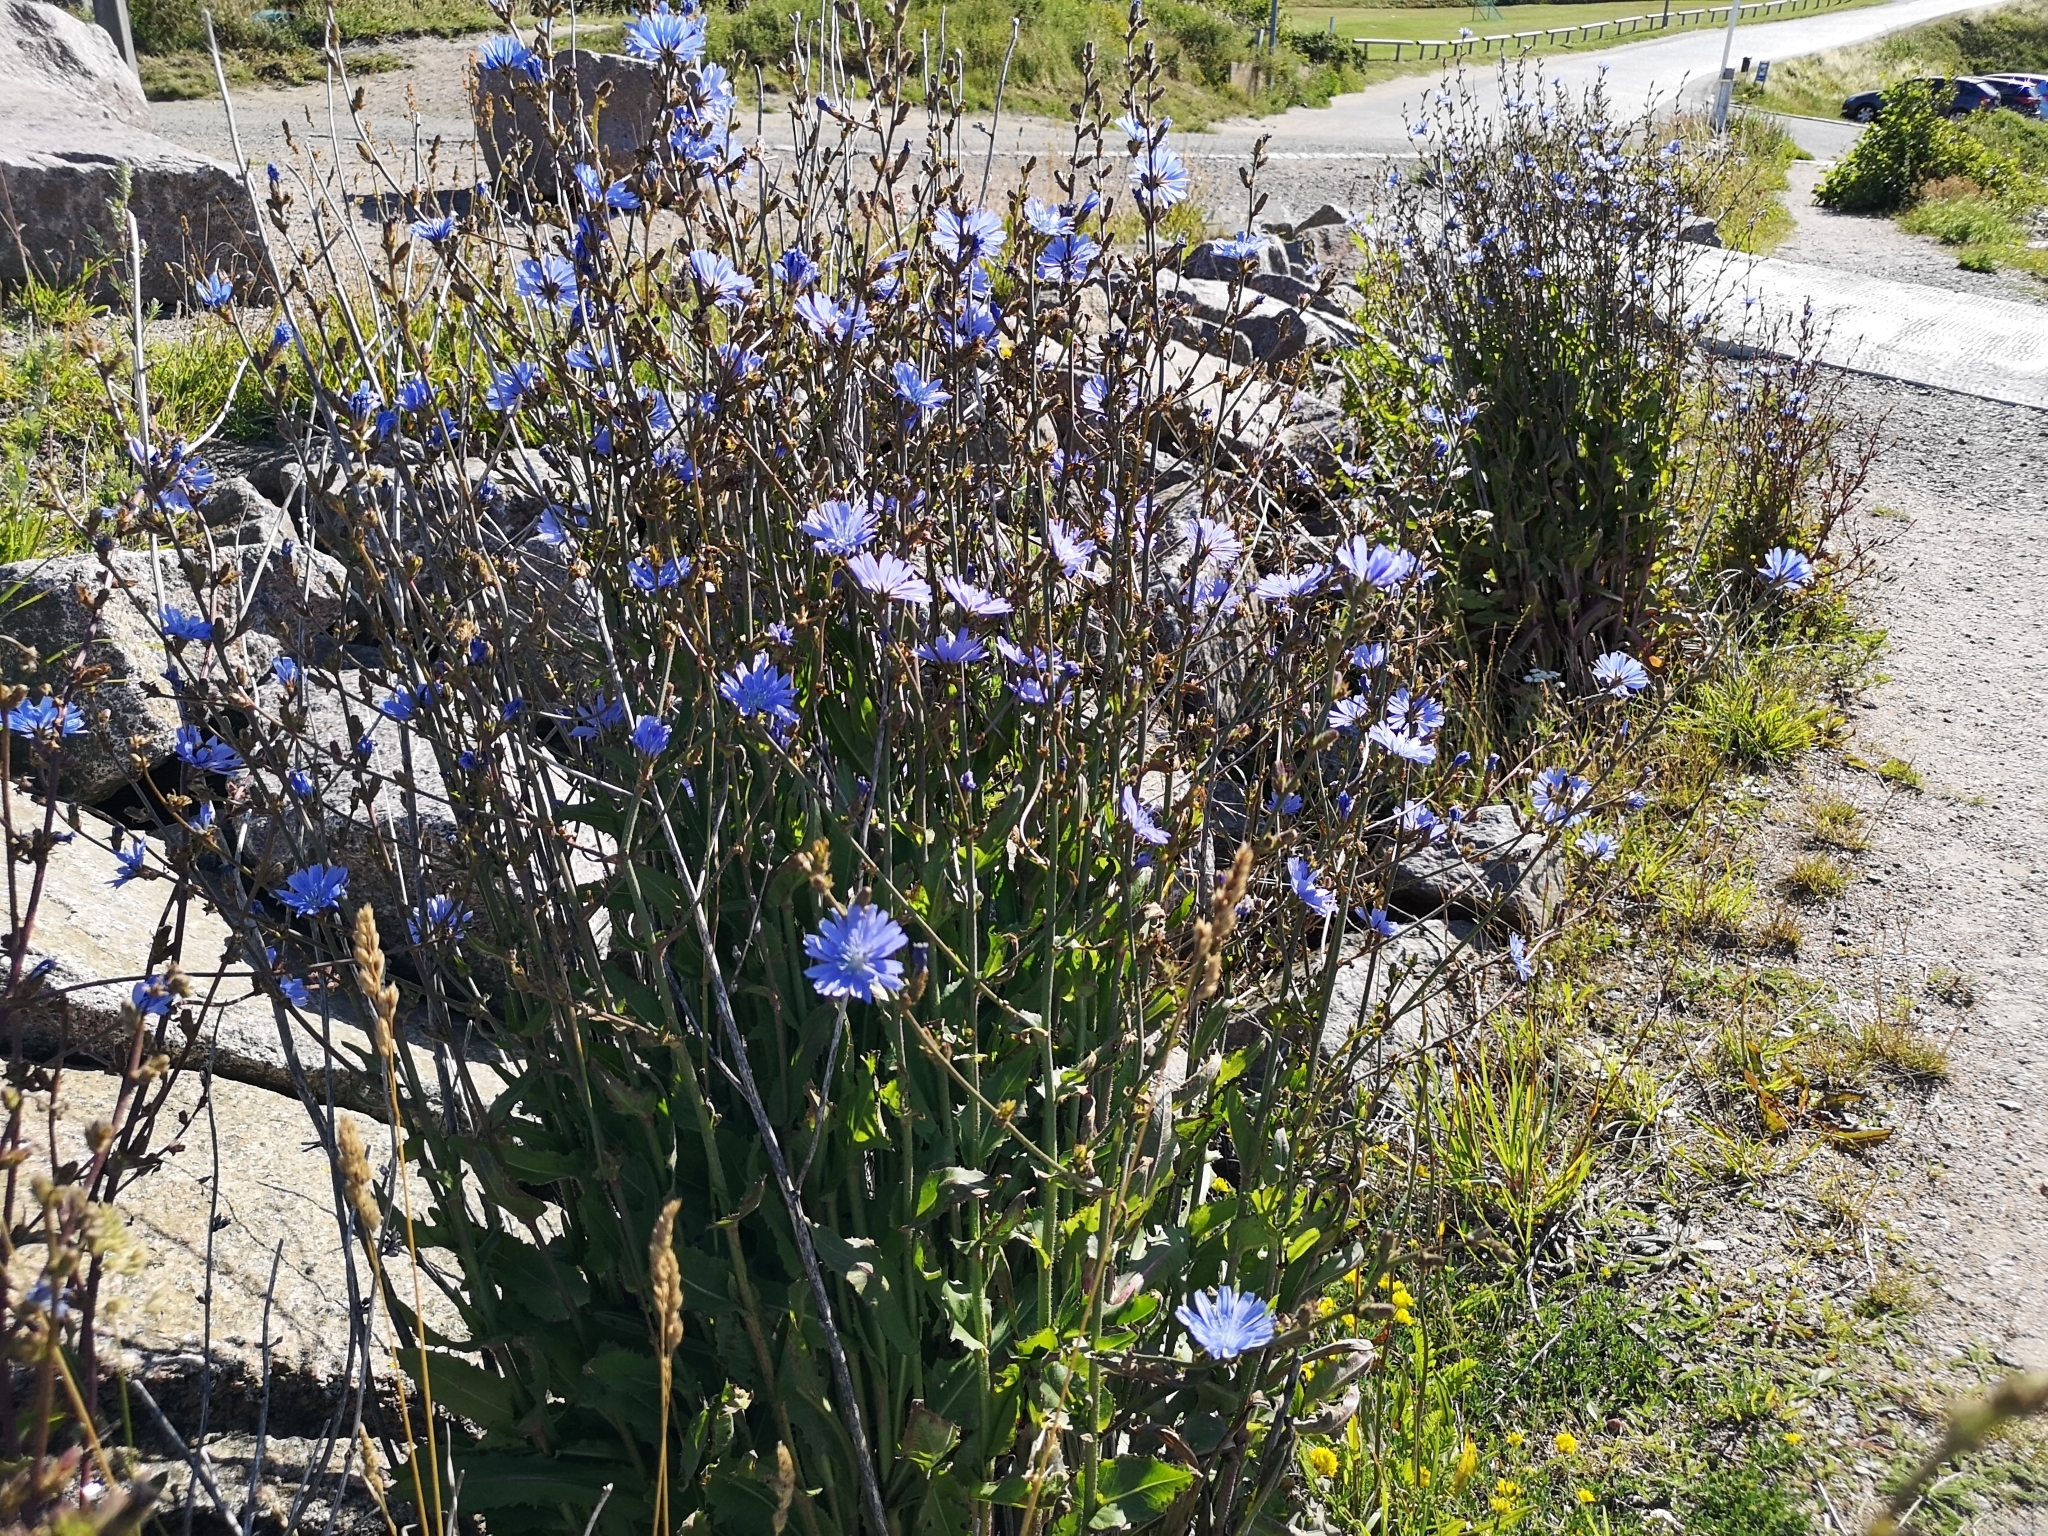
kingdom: Plantae
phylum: Tracheophyta
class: Magnoliopsida
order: Asterales
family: Asteraceae
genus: Cichorium
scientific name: Cichorium intybus
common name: Chicory
